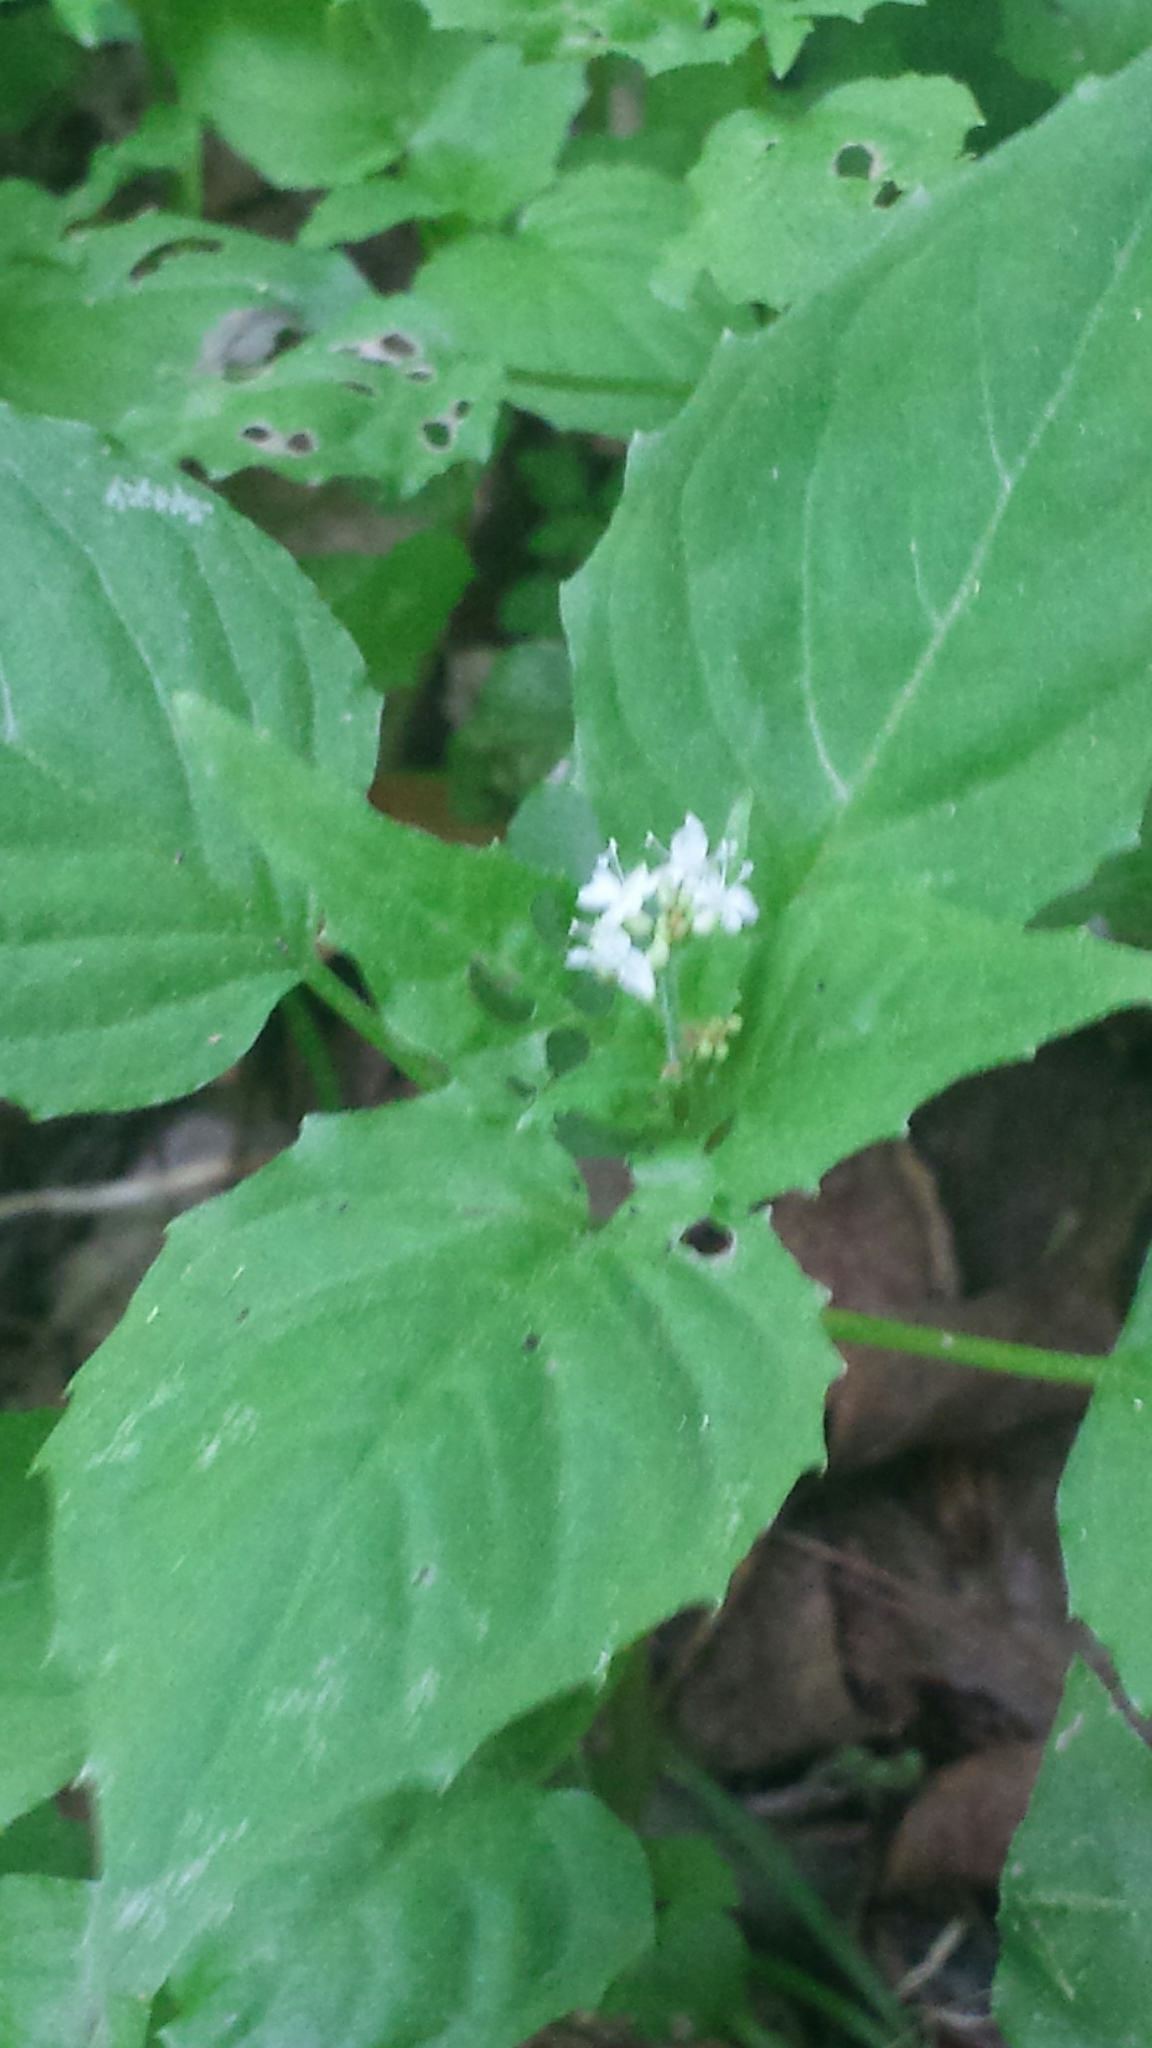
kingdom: Plantae
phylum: Tracheophyta
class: Magnoliopsida
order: Myrtales
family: Onagraceae
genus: Circaea
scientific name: Circaea alpina
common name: Alpine enchanter's-nightshade
